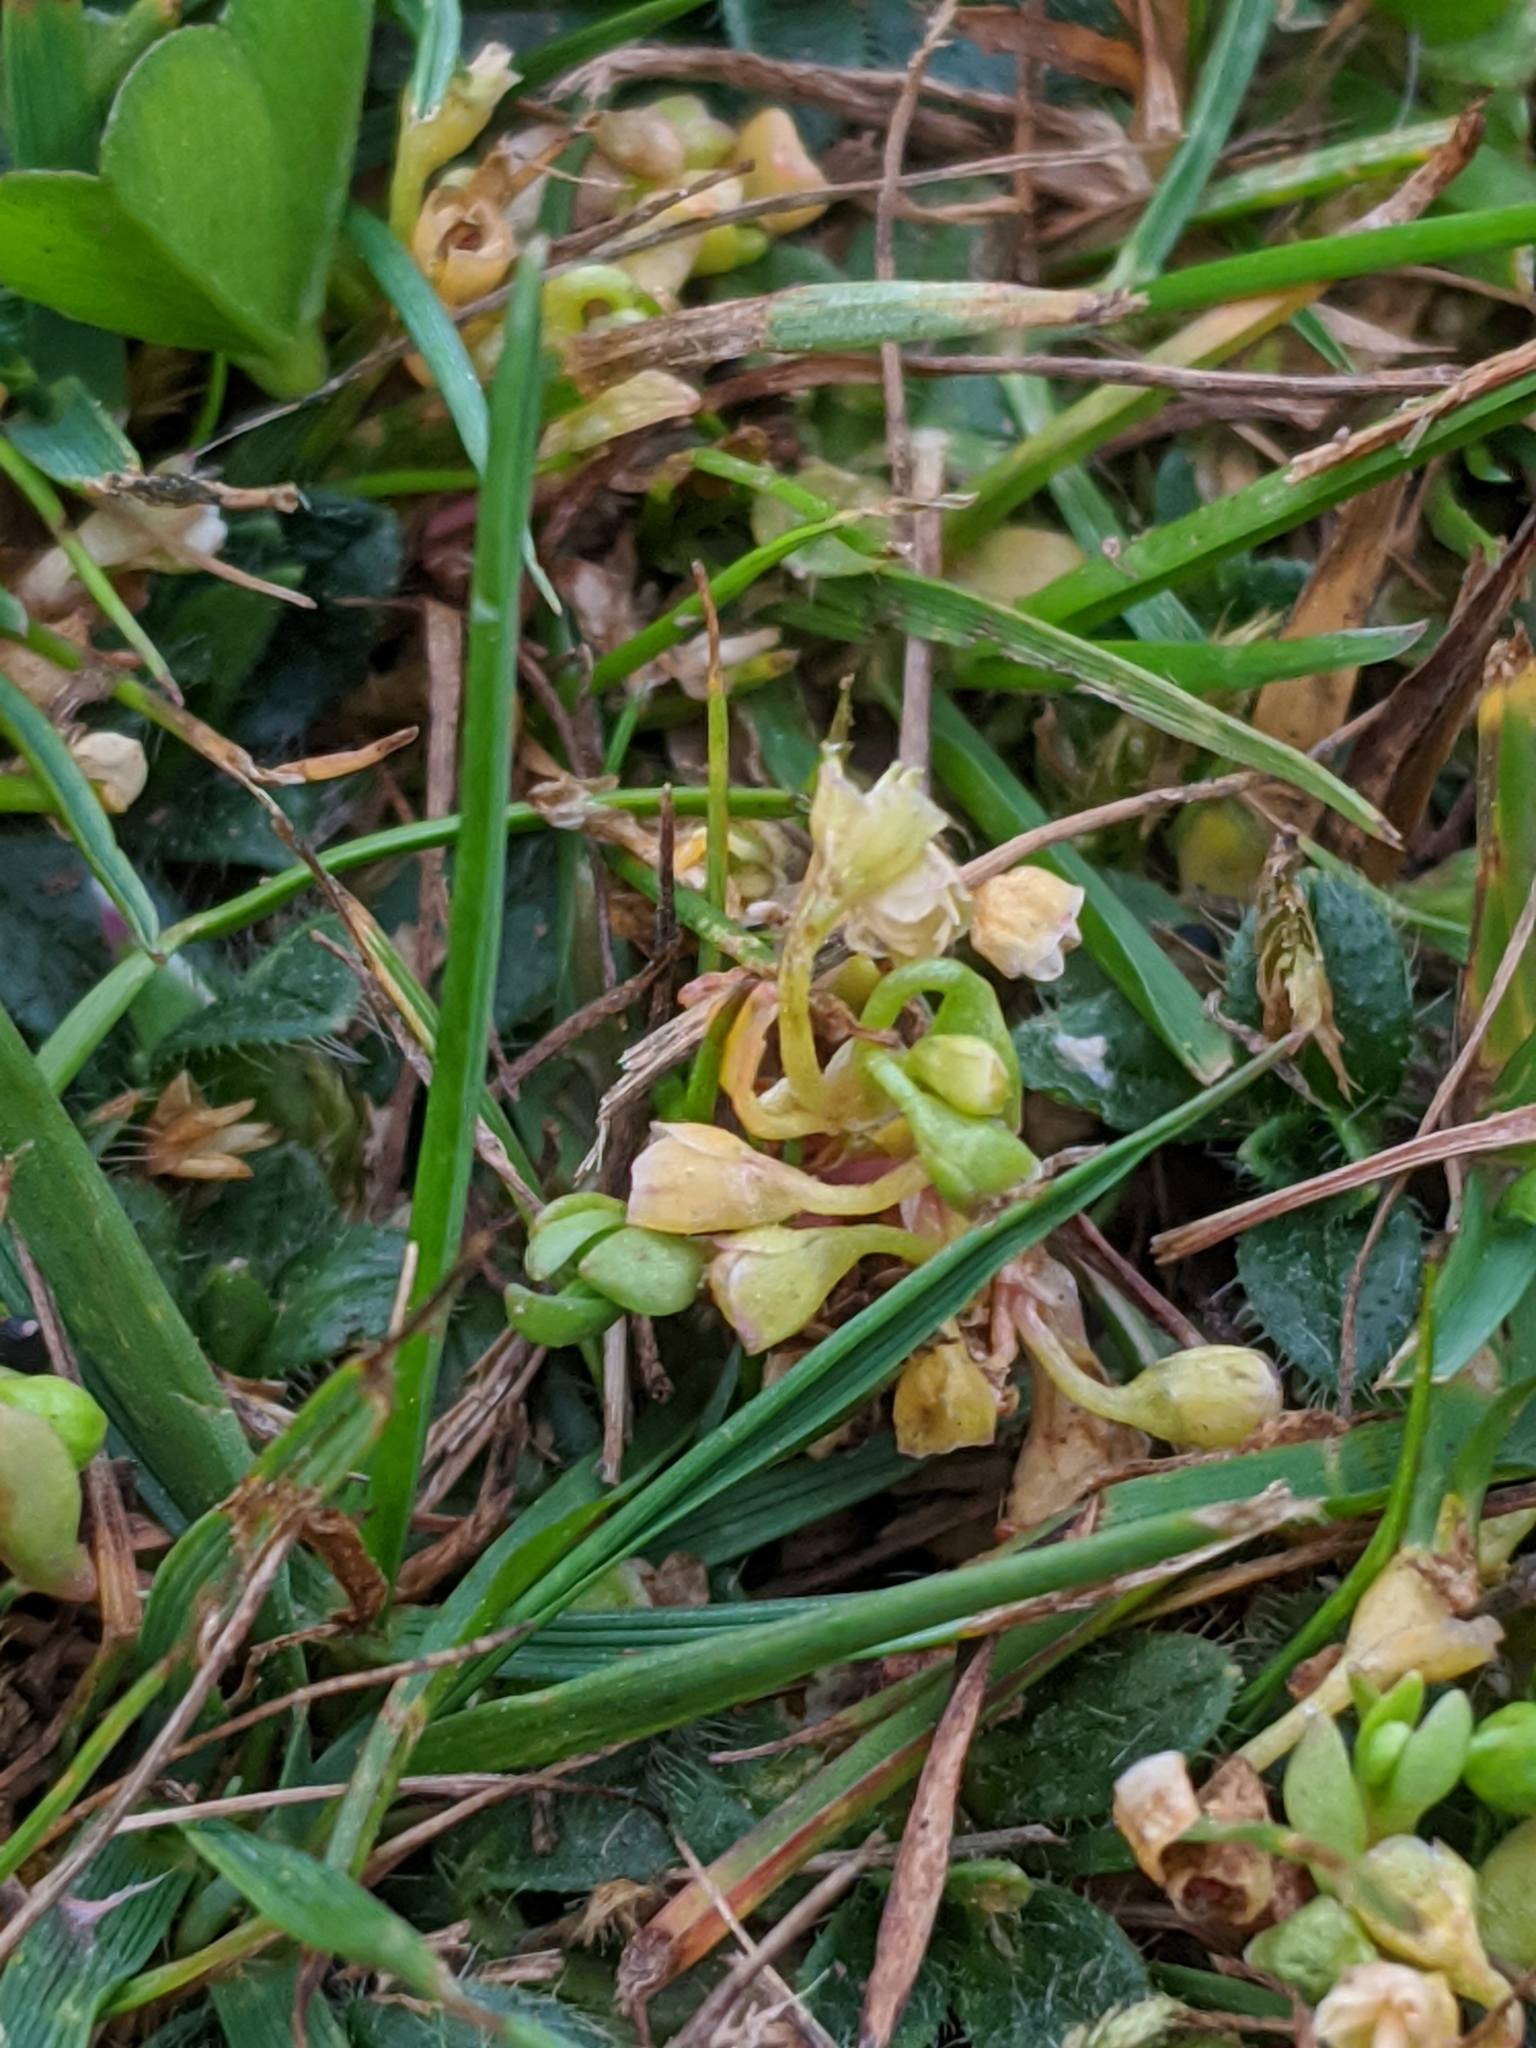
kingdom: Plantae
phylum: Tracheophyta
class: Magnoliopsida
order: Caryophyllales
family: Montiaceae
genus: Montia
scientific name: Montia
